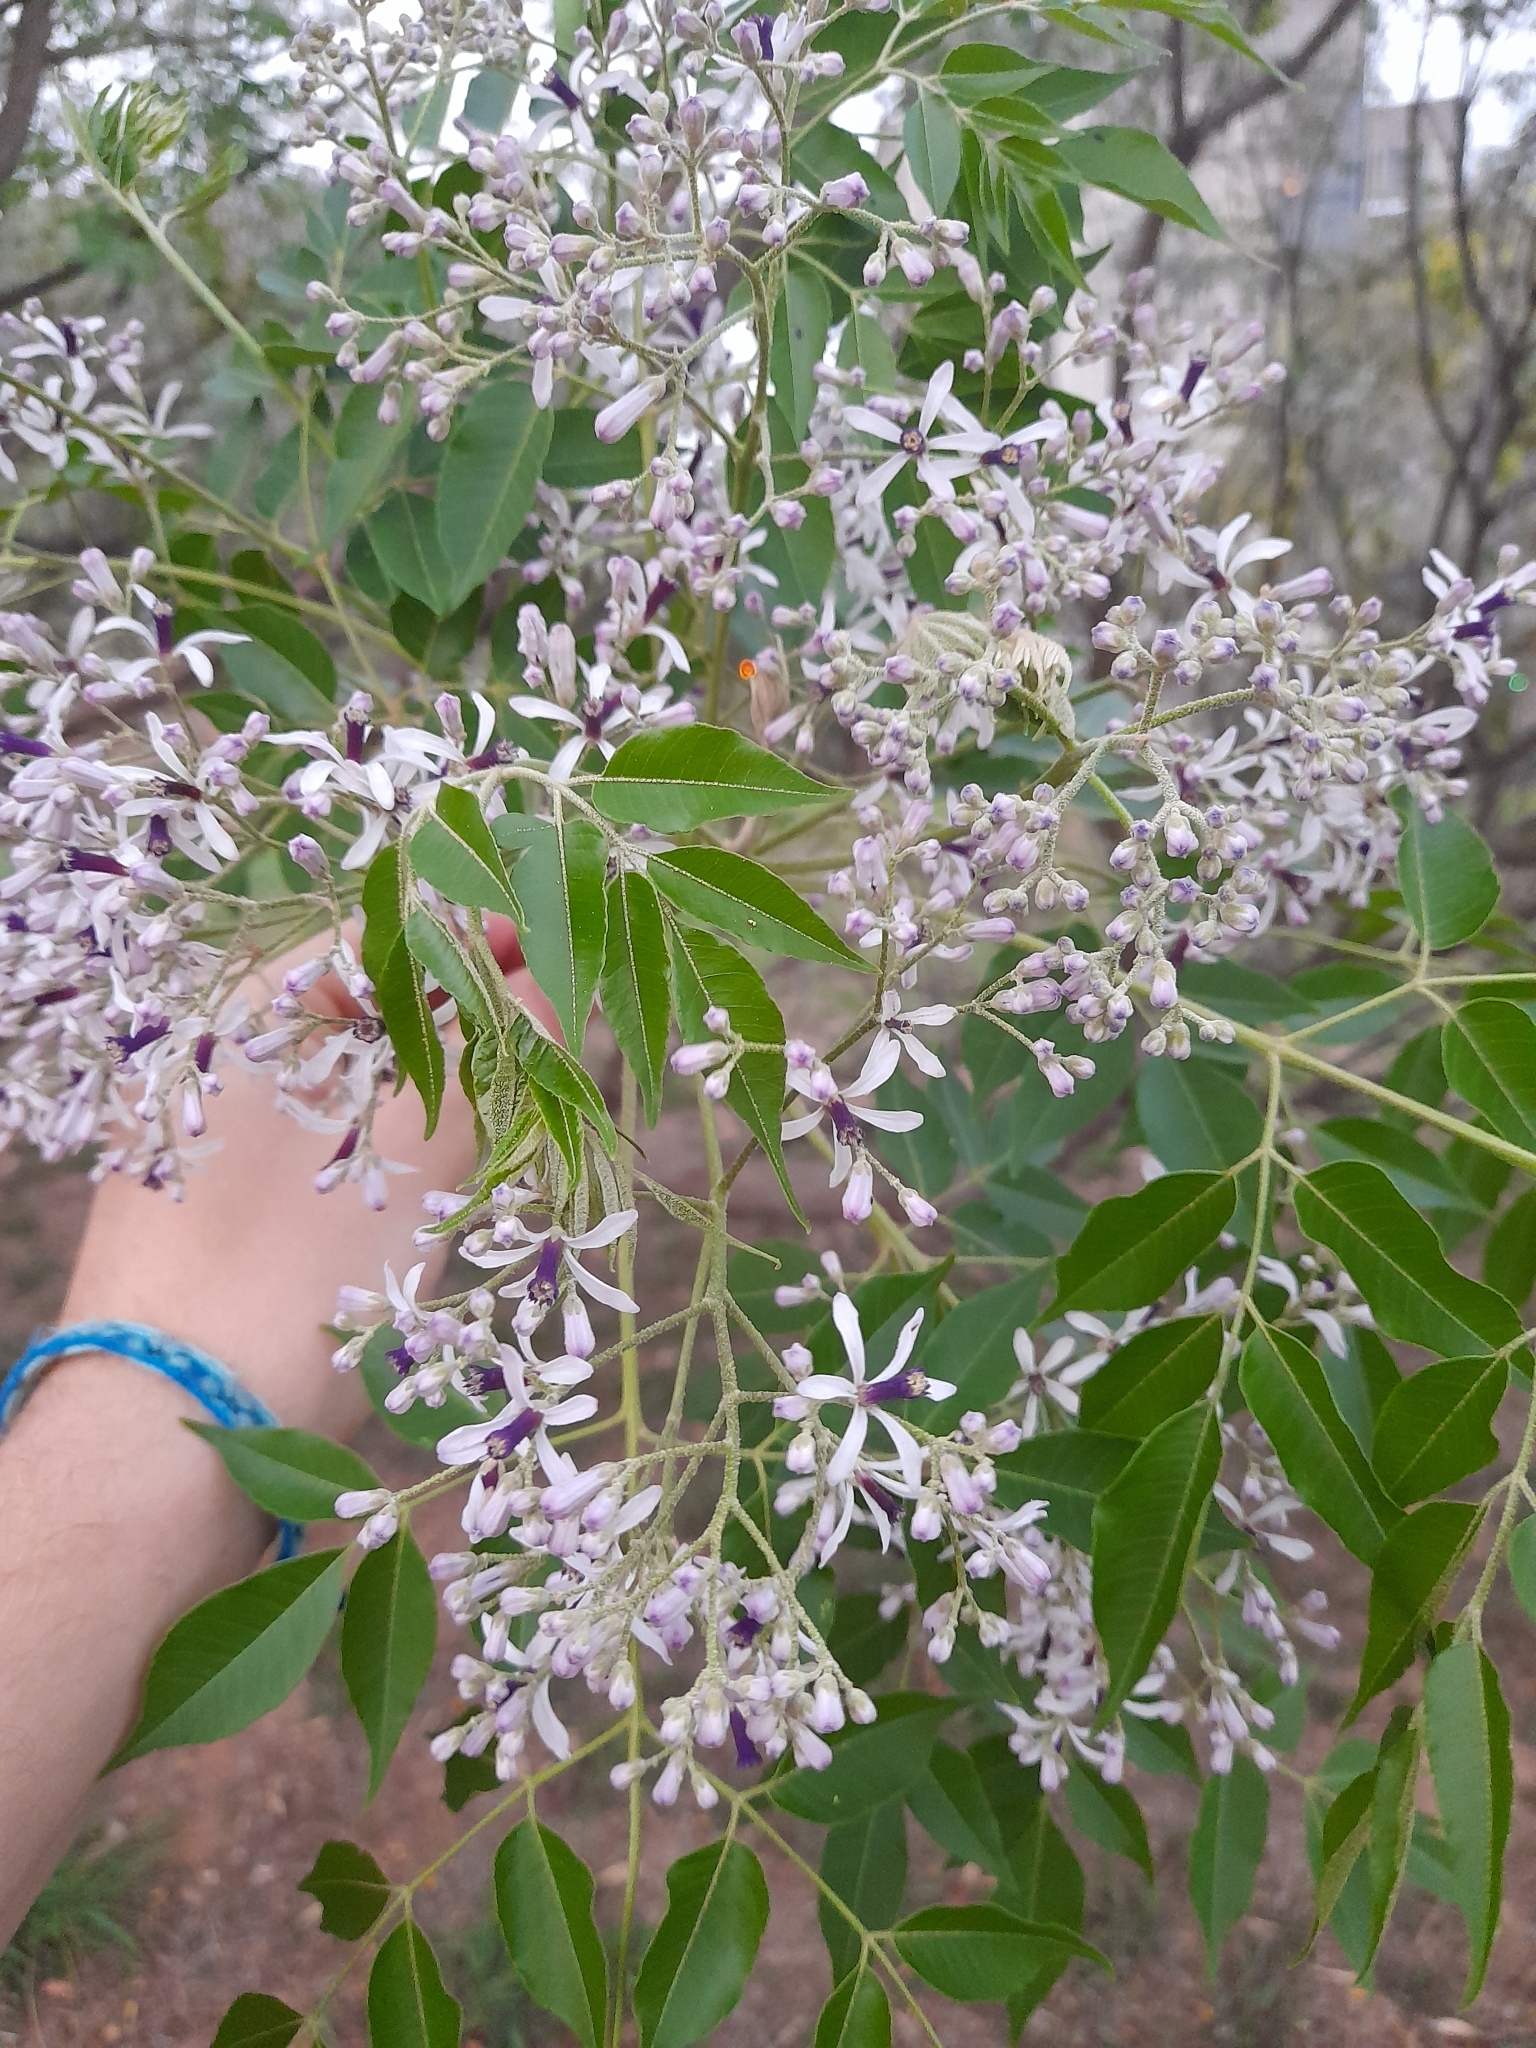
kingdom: Plantae
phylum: Tracheophyta
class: Magnoliopsida
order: Sapindales
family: Meliaceae
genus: Melia
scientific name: Melia azedarach
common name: Chinaberrytree
